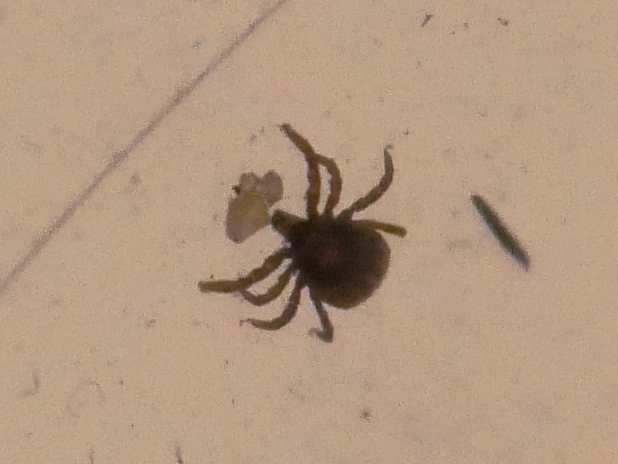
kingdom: Animalia
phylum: Arthropoda
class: Arachnida
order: Ixodida
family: Ixodidae
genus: Ixodes
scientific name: Ixodes ricinus
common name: Castor bean tick
